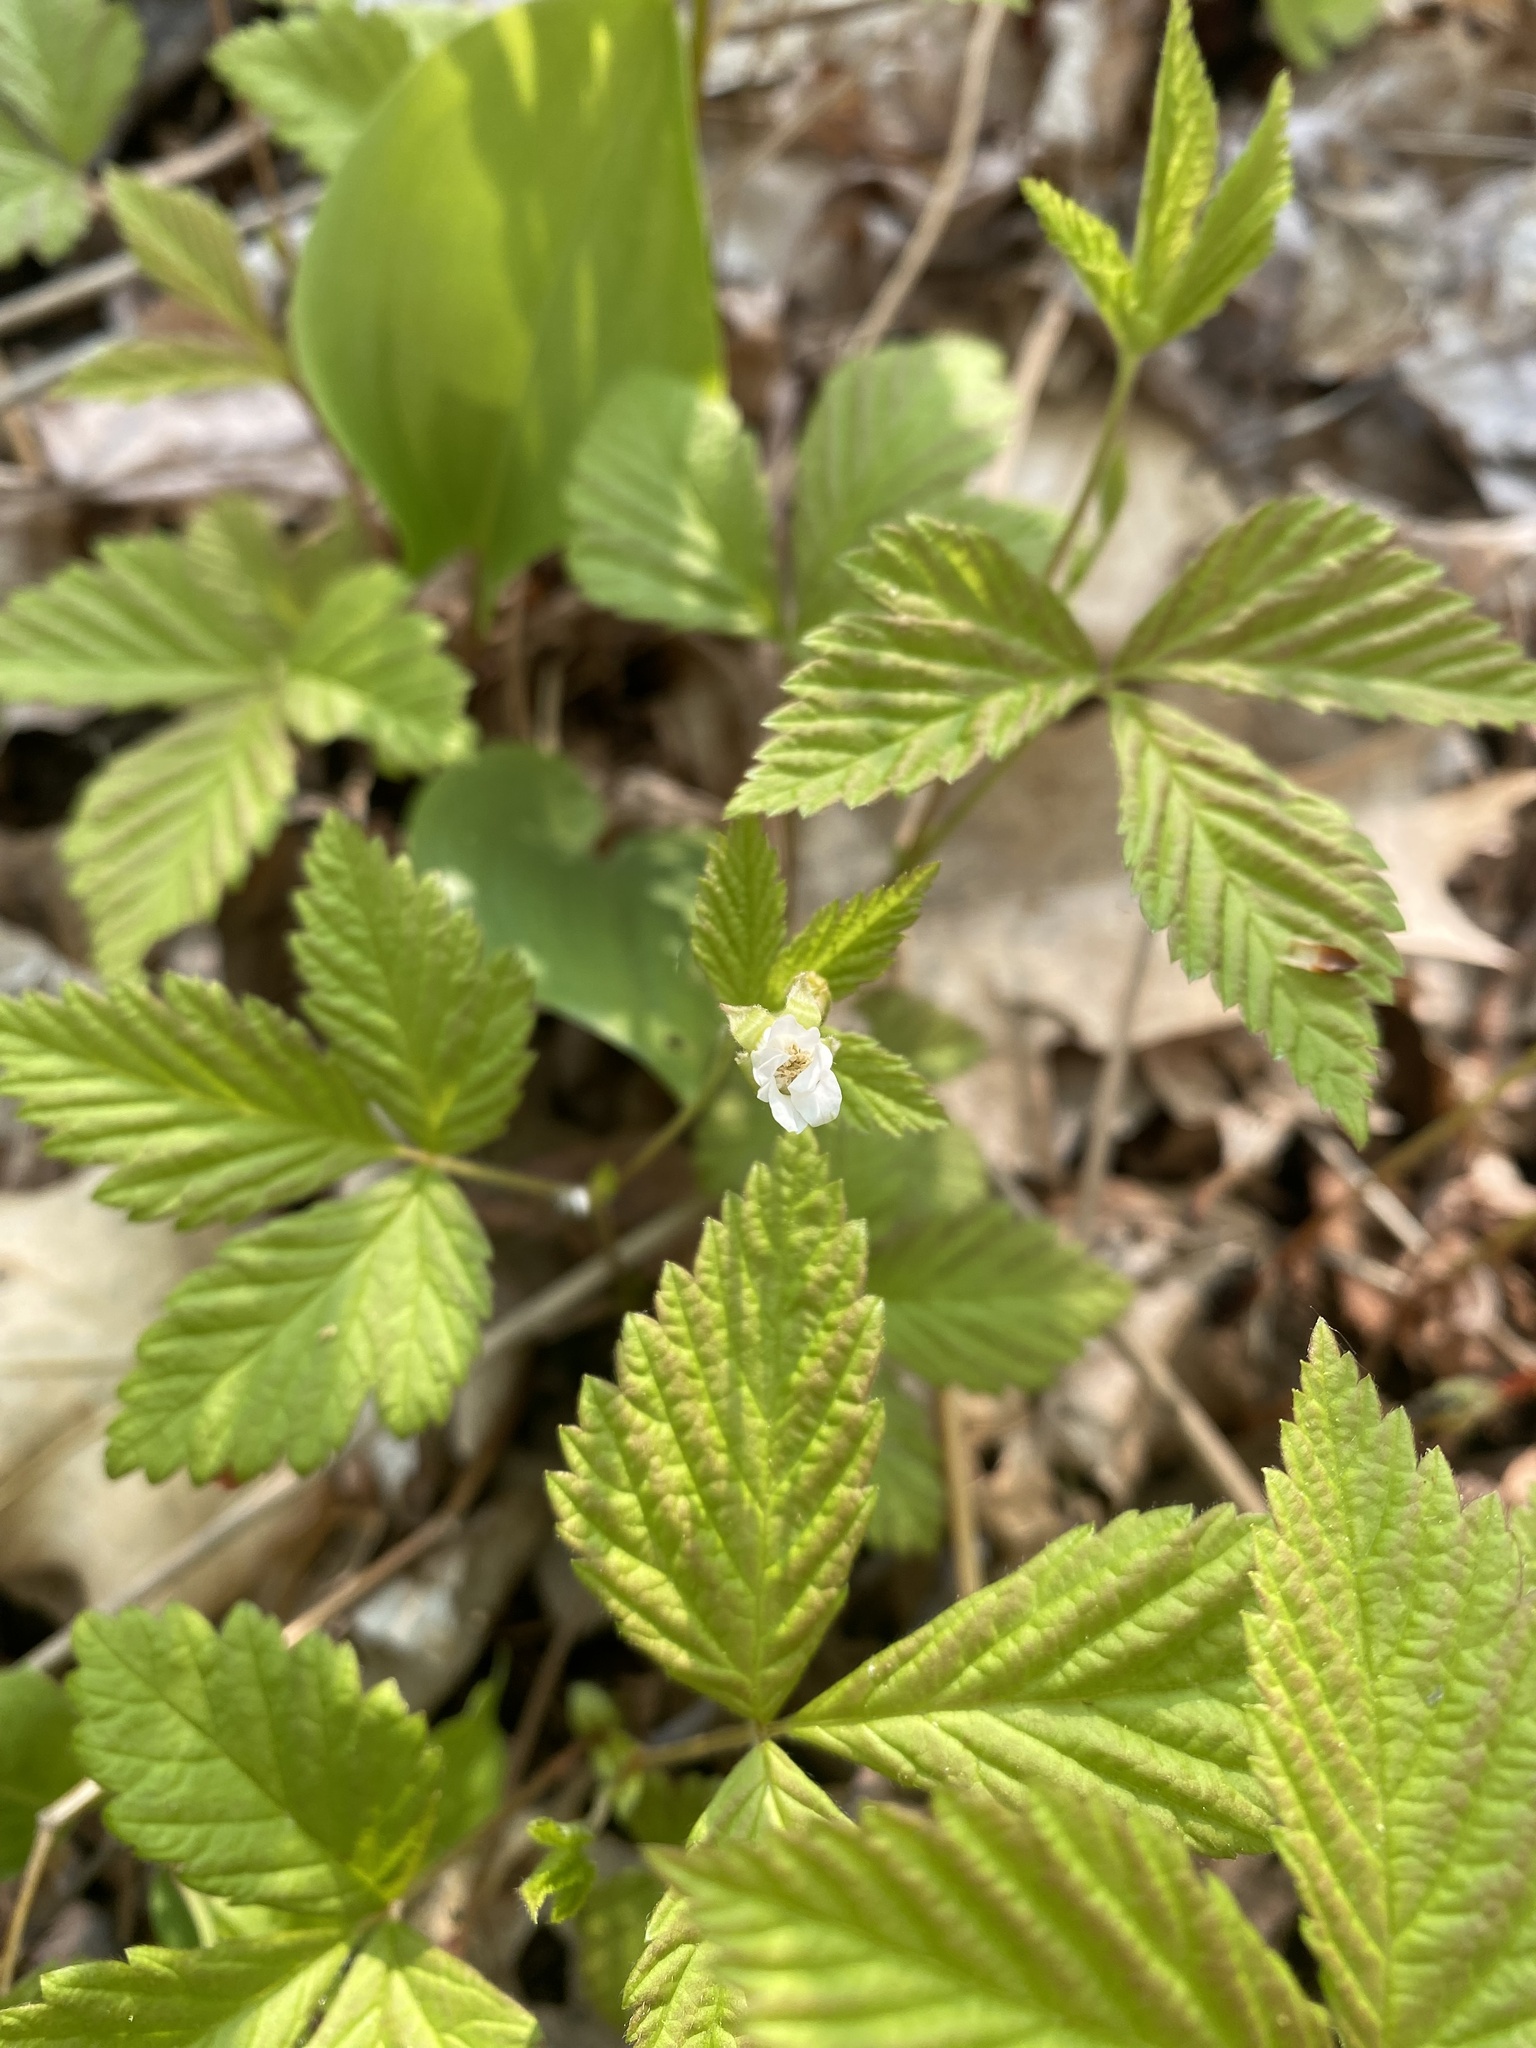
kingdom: Plantae
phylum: Tracheophyta
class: Magnoliopsida
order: Rosales
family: Rosaceae
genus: Rubus
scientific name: Rubus pubescens
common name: Dwarf raspberry
